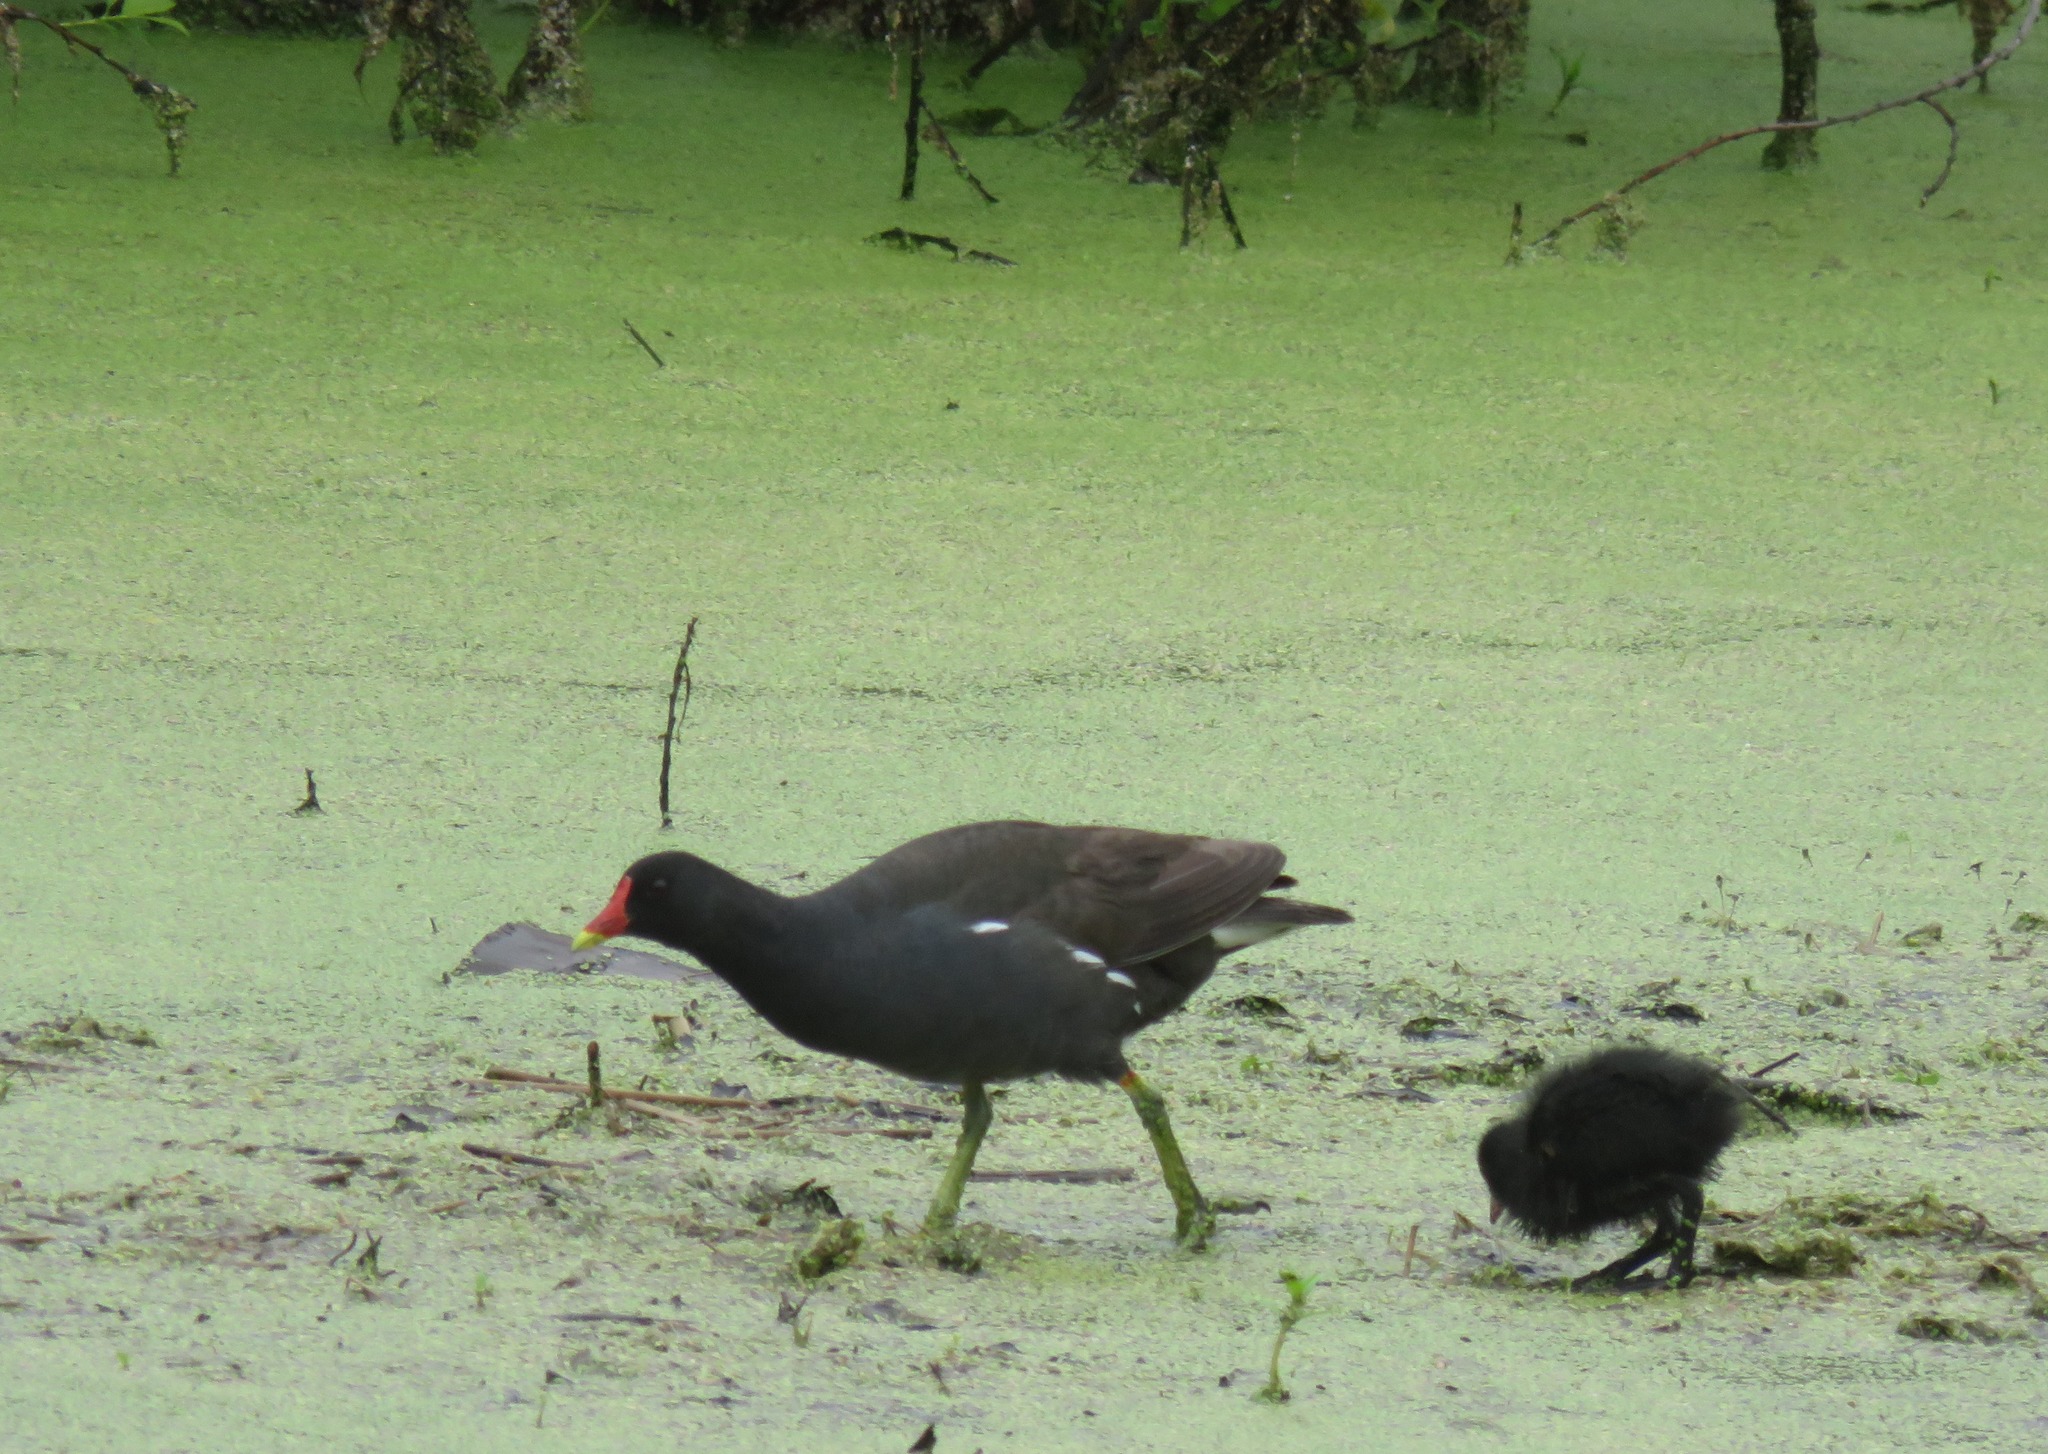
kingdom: Animalia
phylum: Chordata
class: Aves
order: Gruiformes
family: Rallidae
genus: Gallinula
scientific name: Gallinula chloropus
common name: Common moorhen
